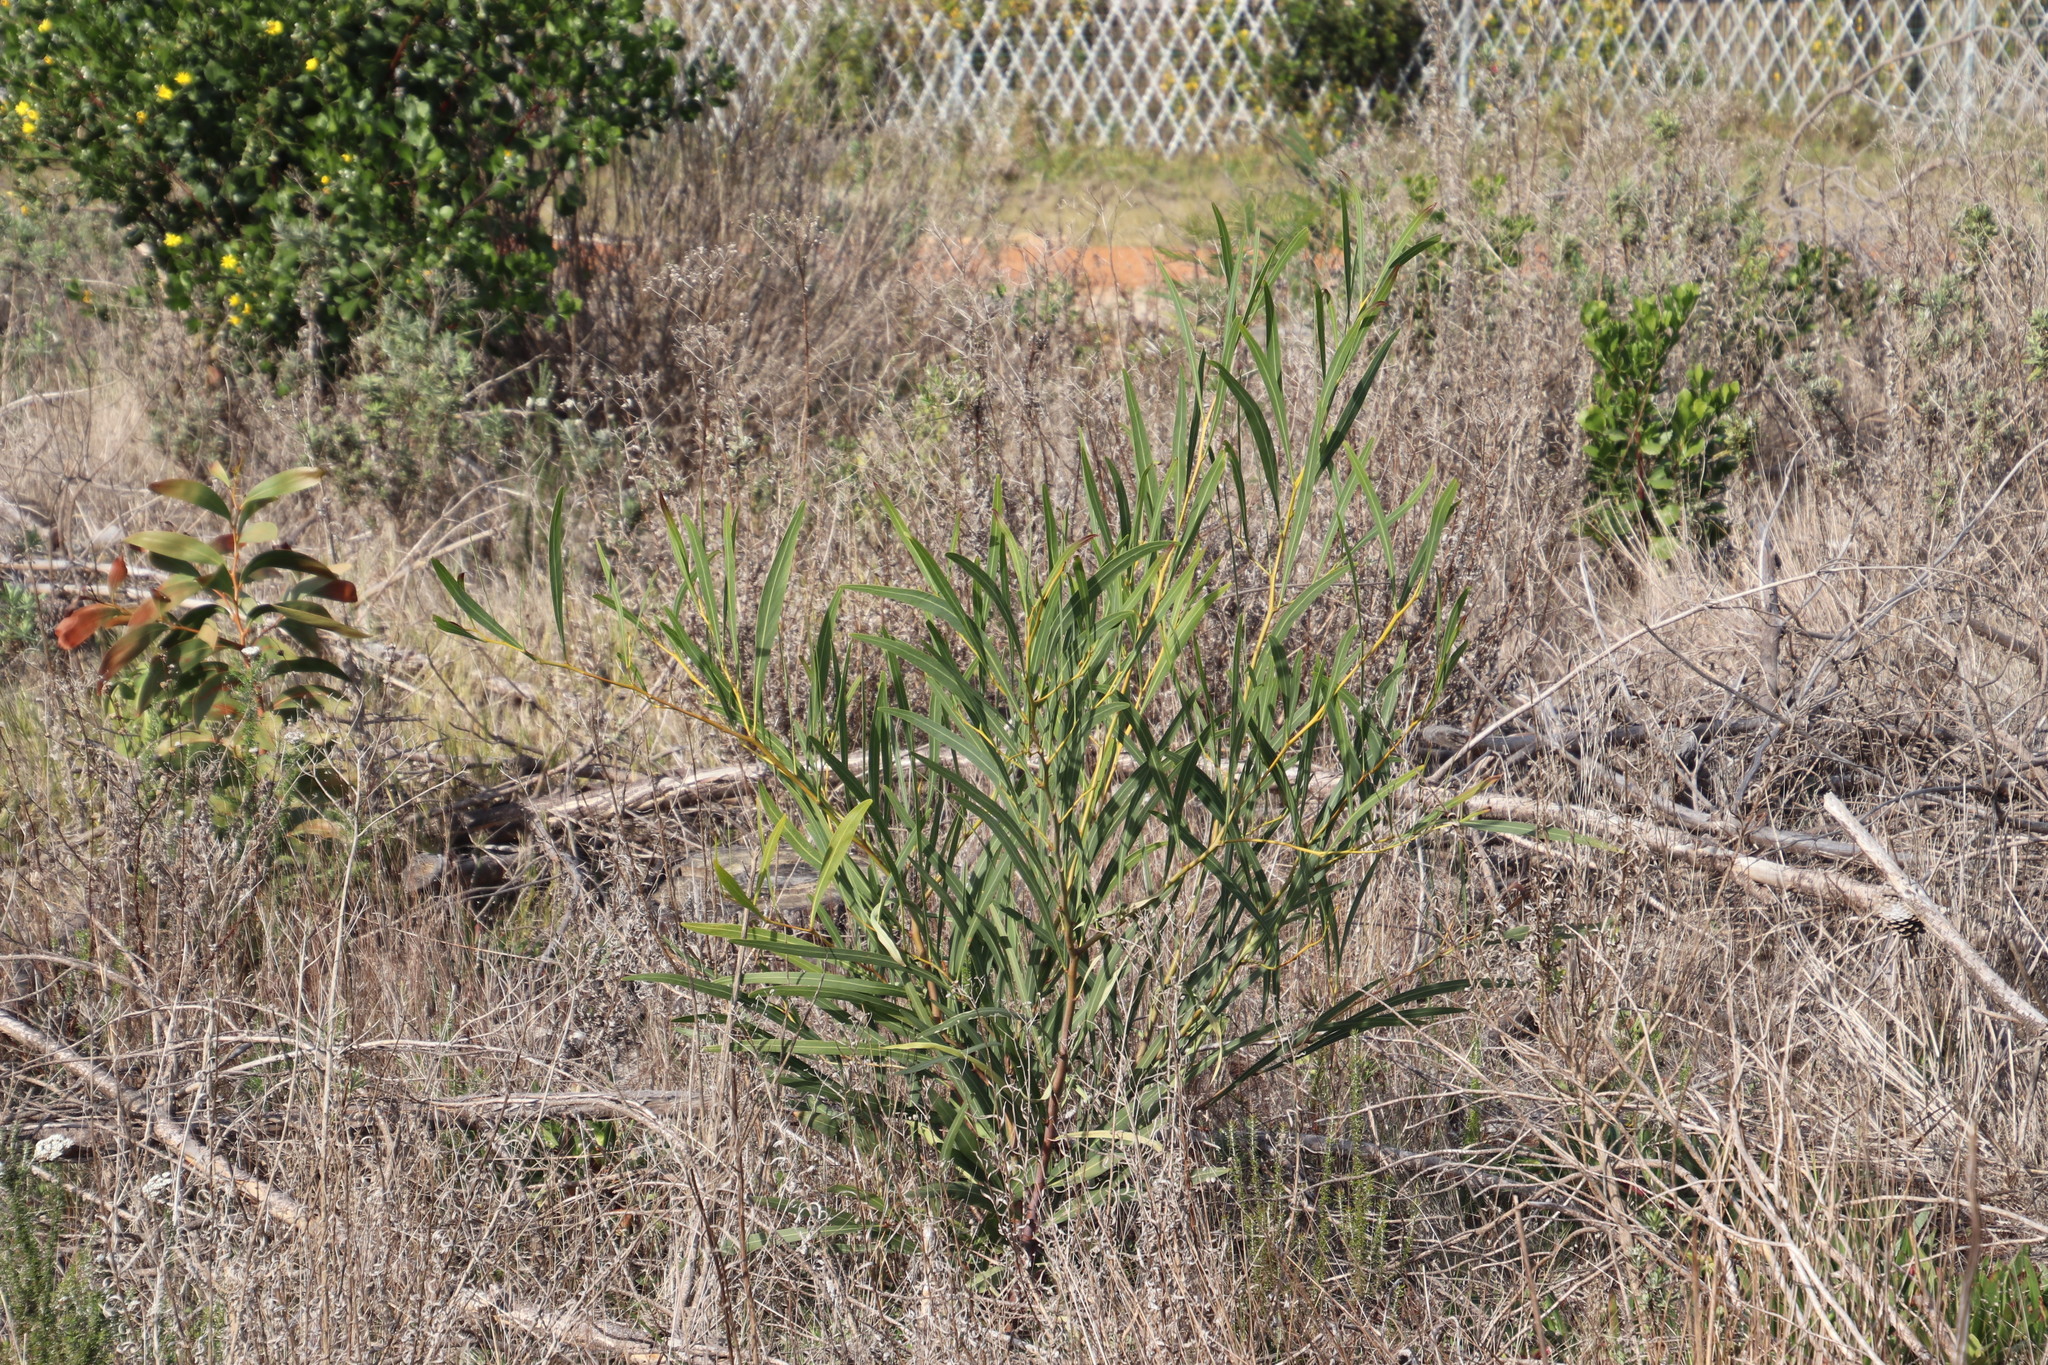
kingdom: Plantae
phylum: Tracheophyta
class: Magnoliopsida
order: Fabales
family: Fabaceae
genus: Acacia
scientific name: Acacia saligna
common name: Orange wattle
